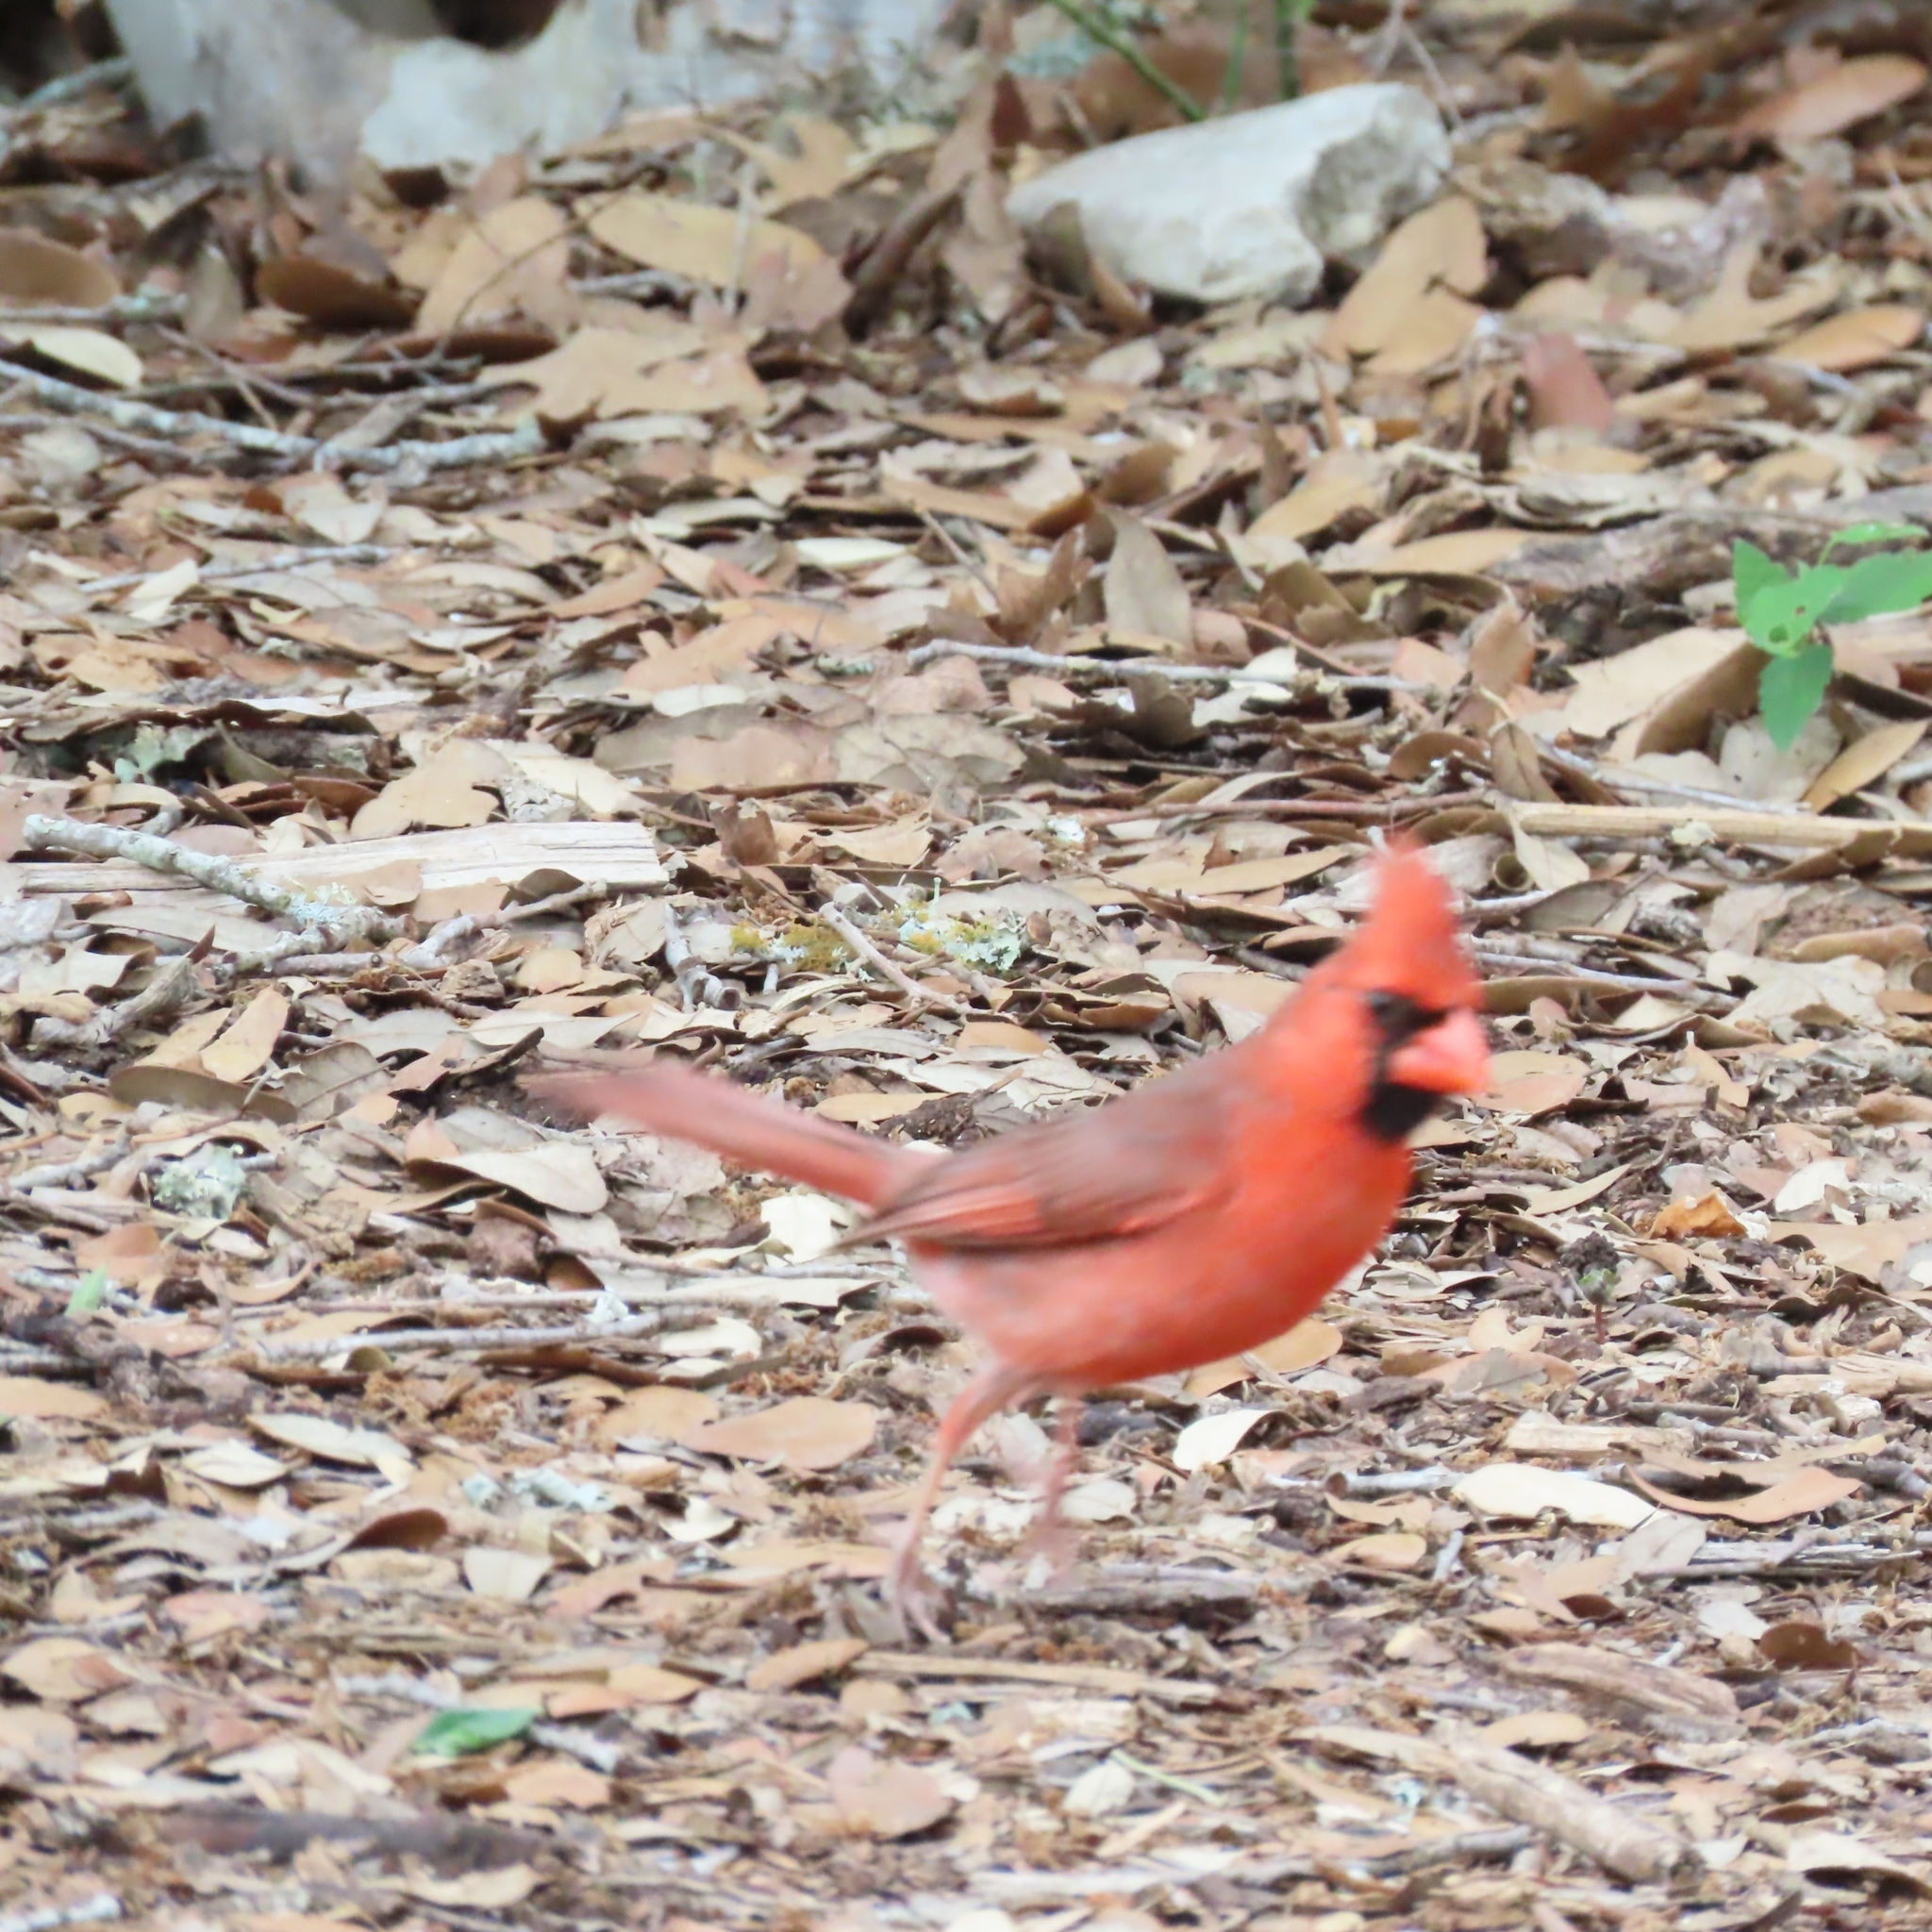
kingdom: Animalia
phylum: Chordata
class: Aves
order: Passeriformes
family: Cardinalidae
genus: Cardinalis
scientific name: Cardinalis cardinalis
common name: Northern cardinal
